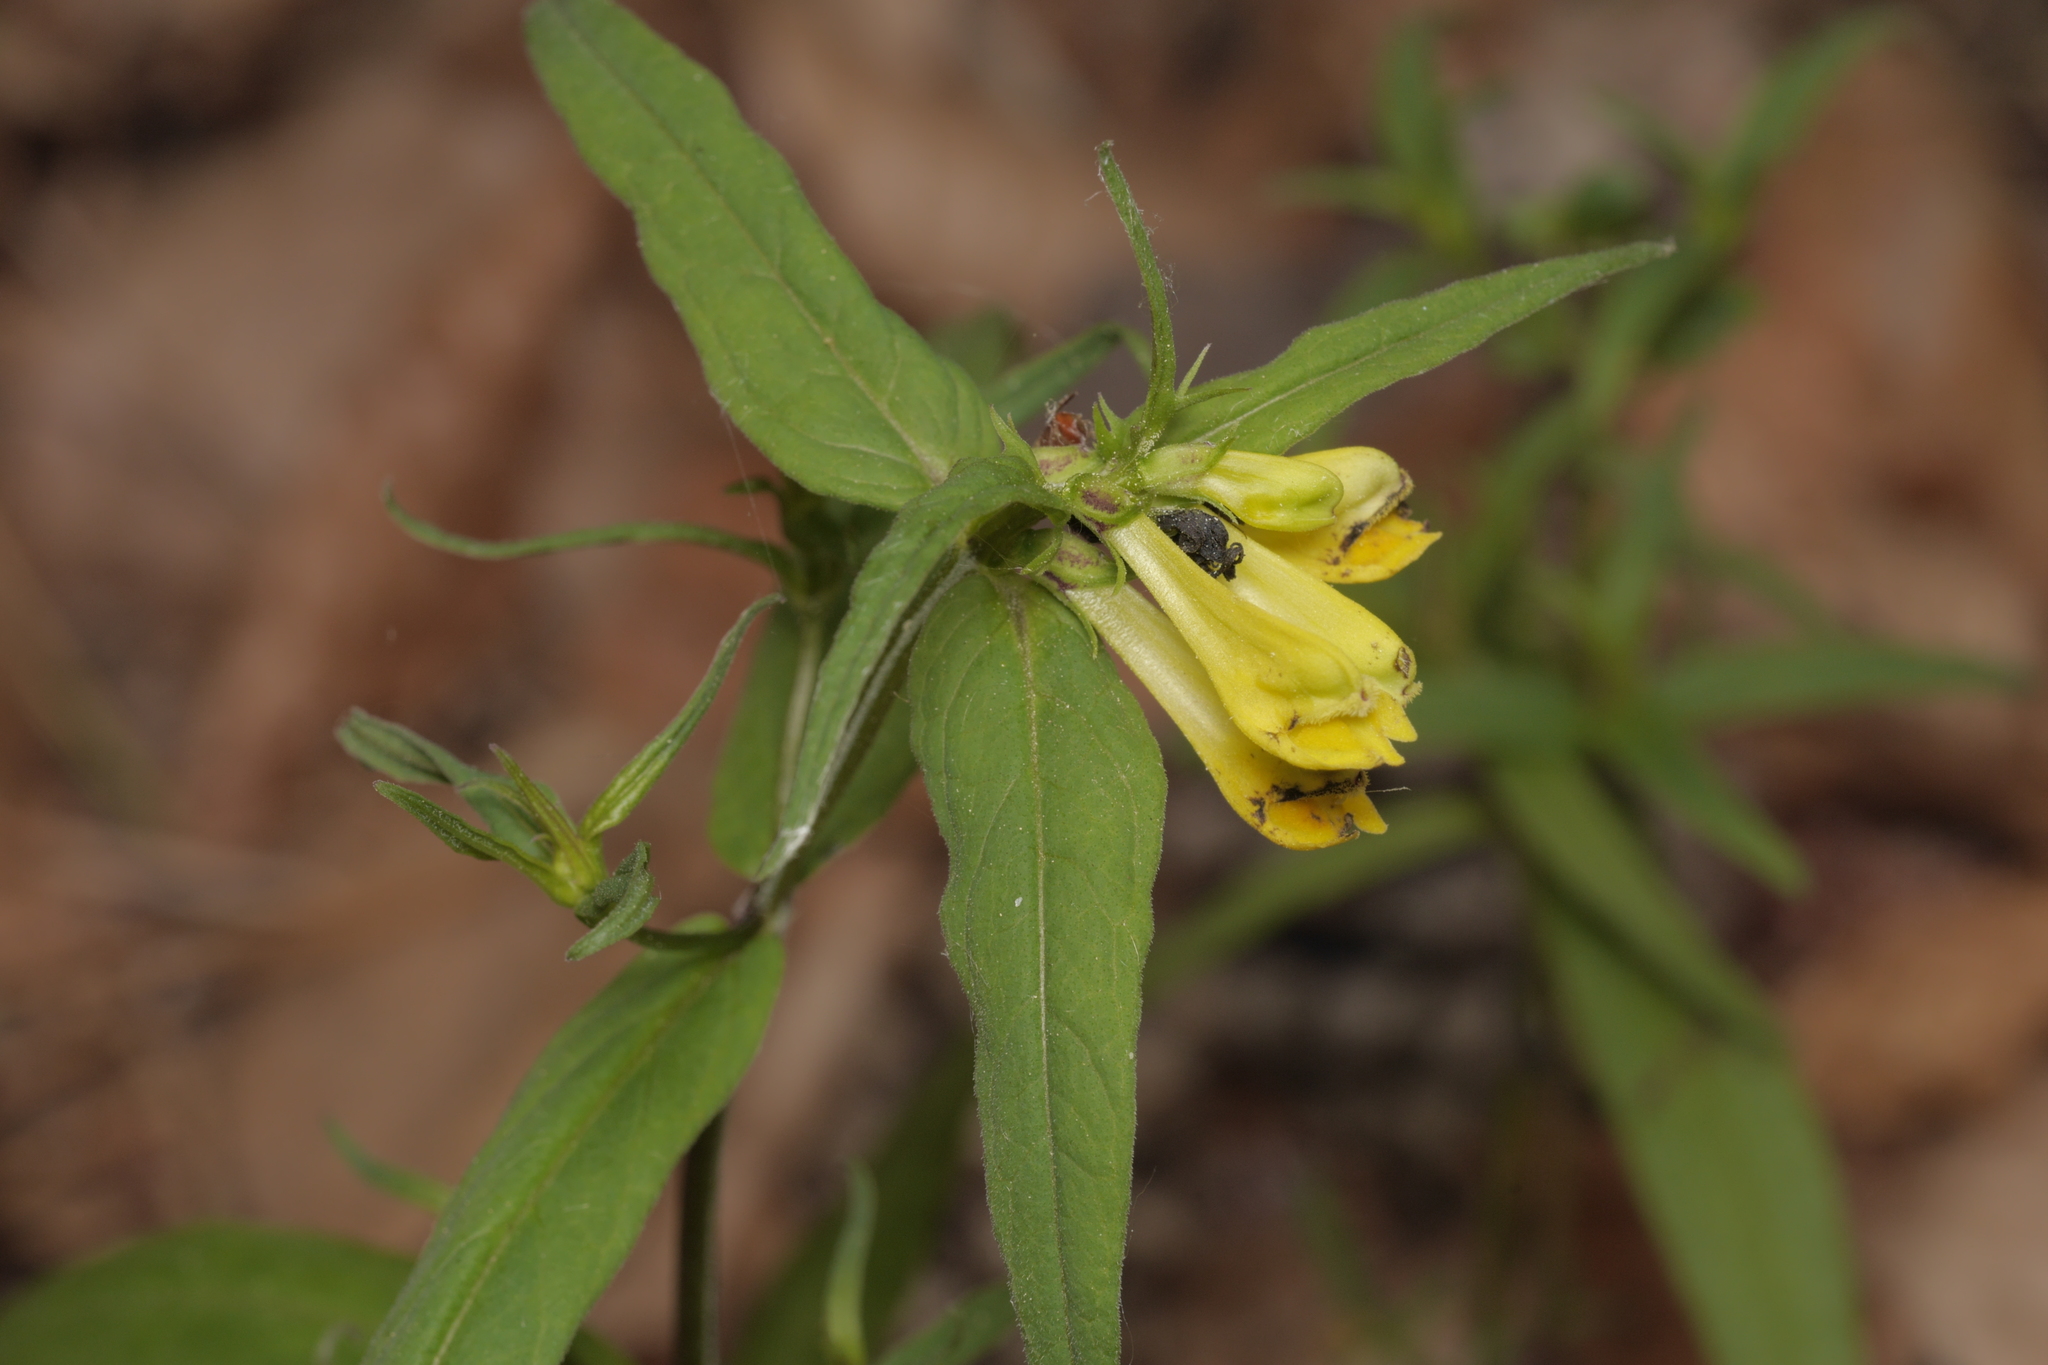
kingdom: Plantae
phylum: Tracheophyta
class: Magnoliopsida
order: Lamiales
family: Orobanchaceae
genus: Melampyrum
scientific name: Melampyrum pratense
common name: Common cow-wheat
